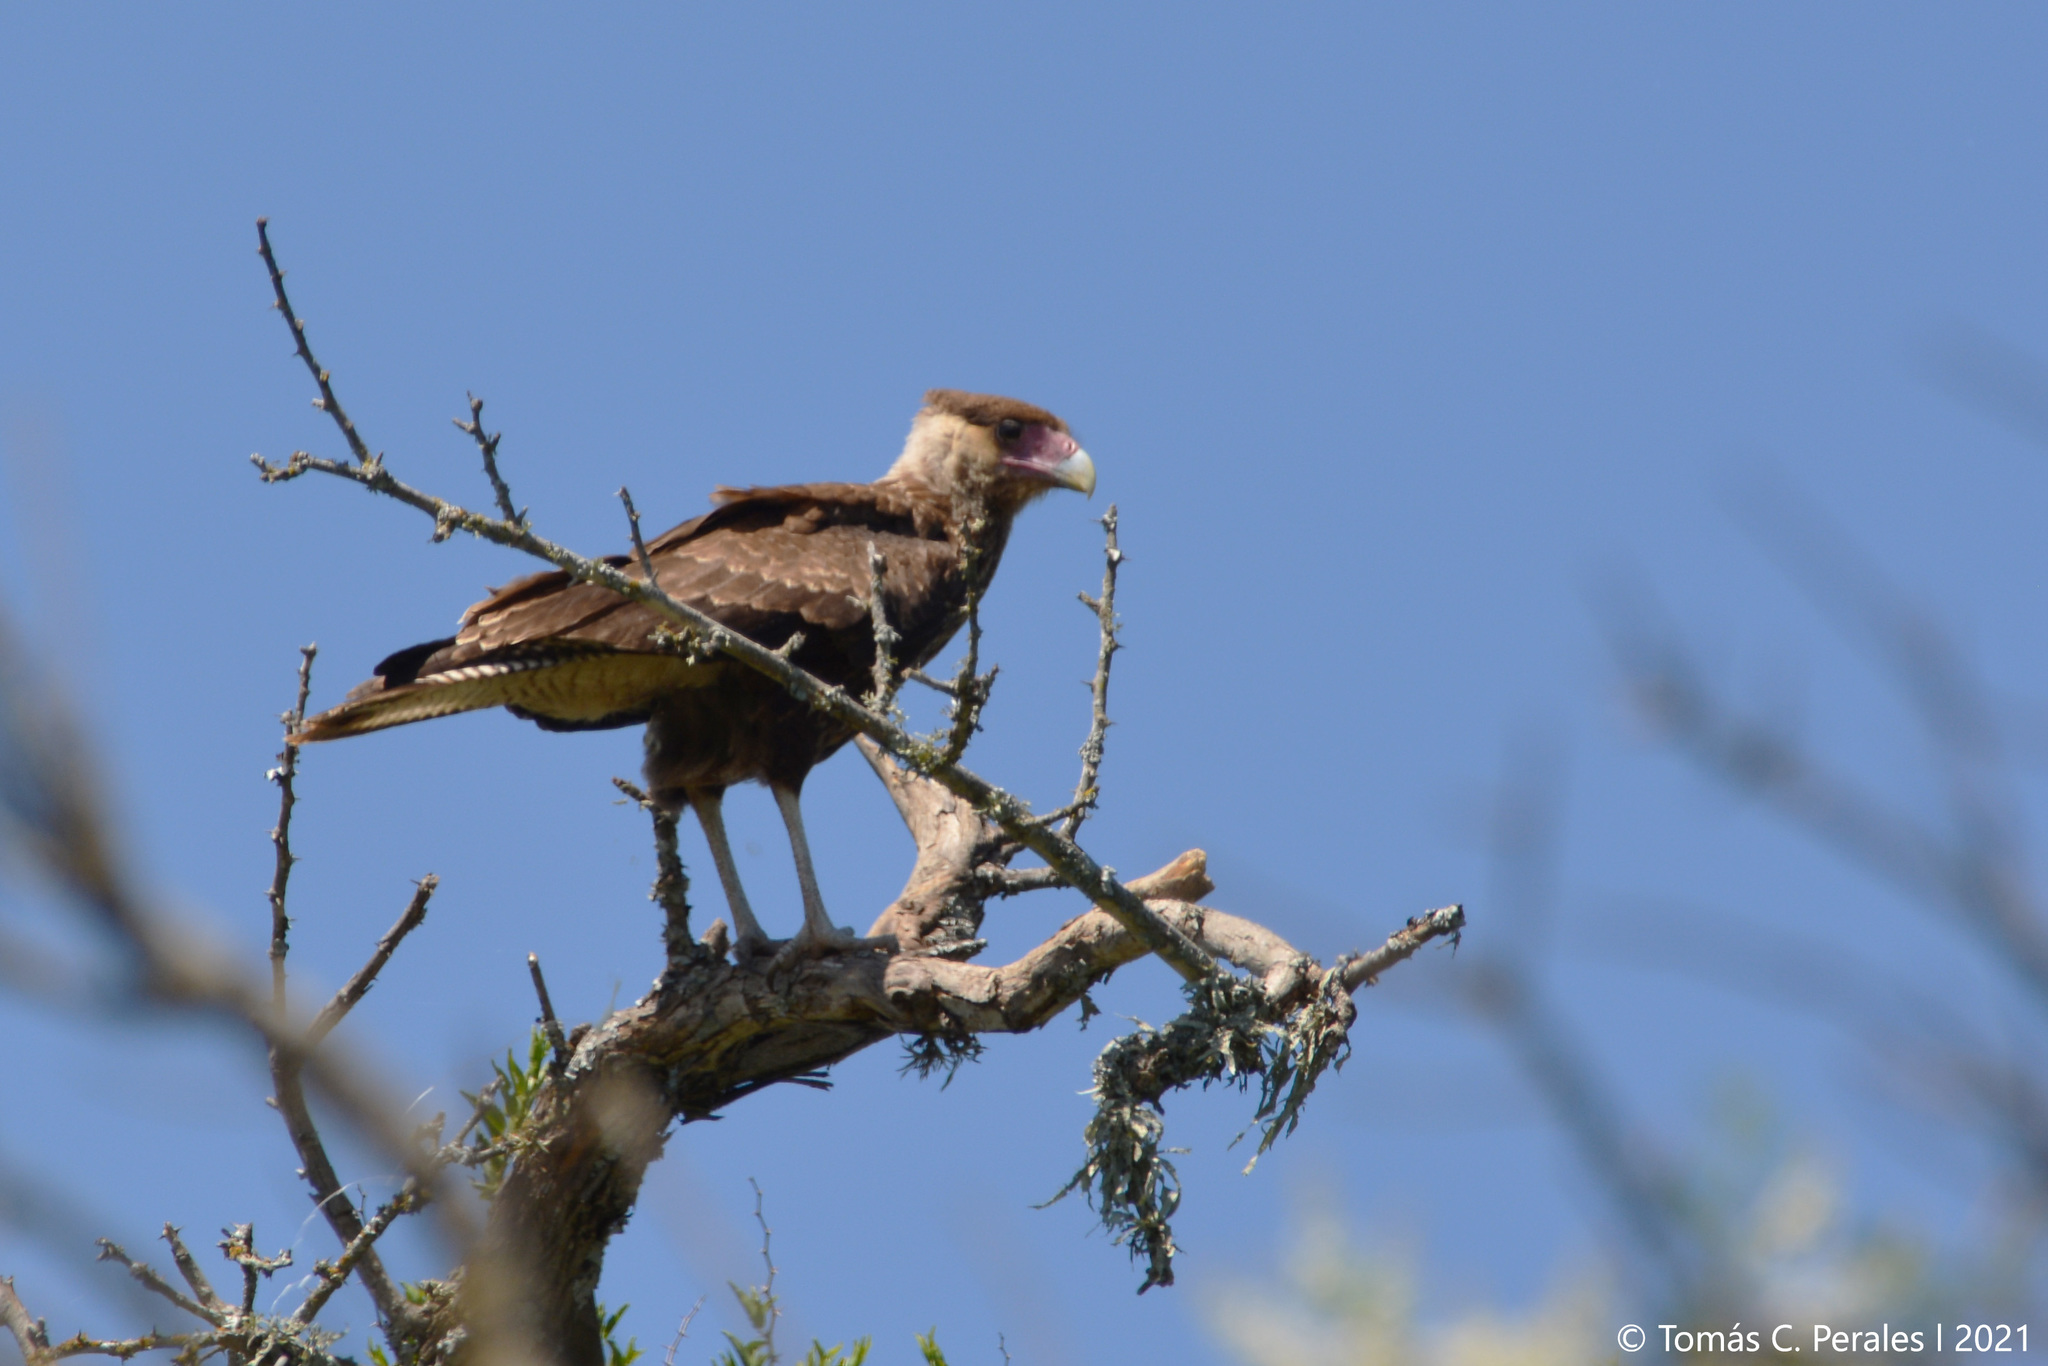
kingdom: Animalia
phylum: Chordata
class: Aves
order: Falconiformes
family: Falconidae
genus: Caracara
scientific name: Caracara plancus
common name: Southern caracara
